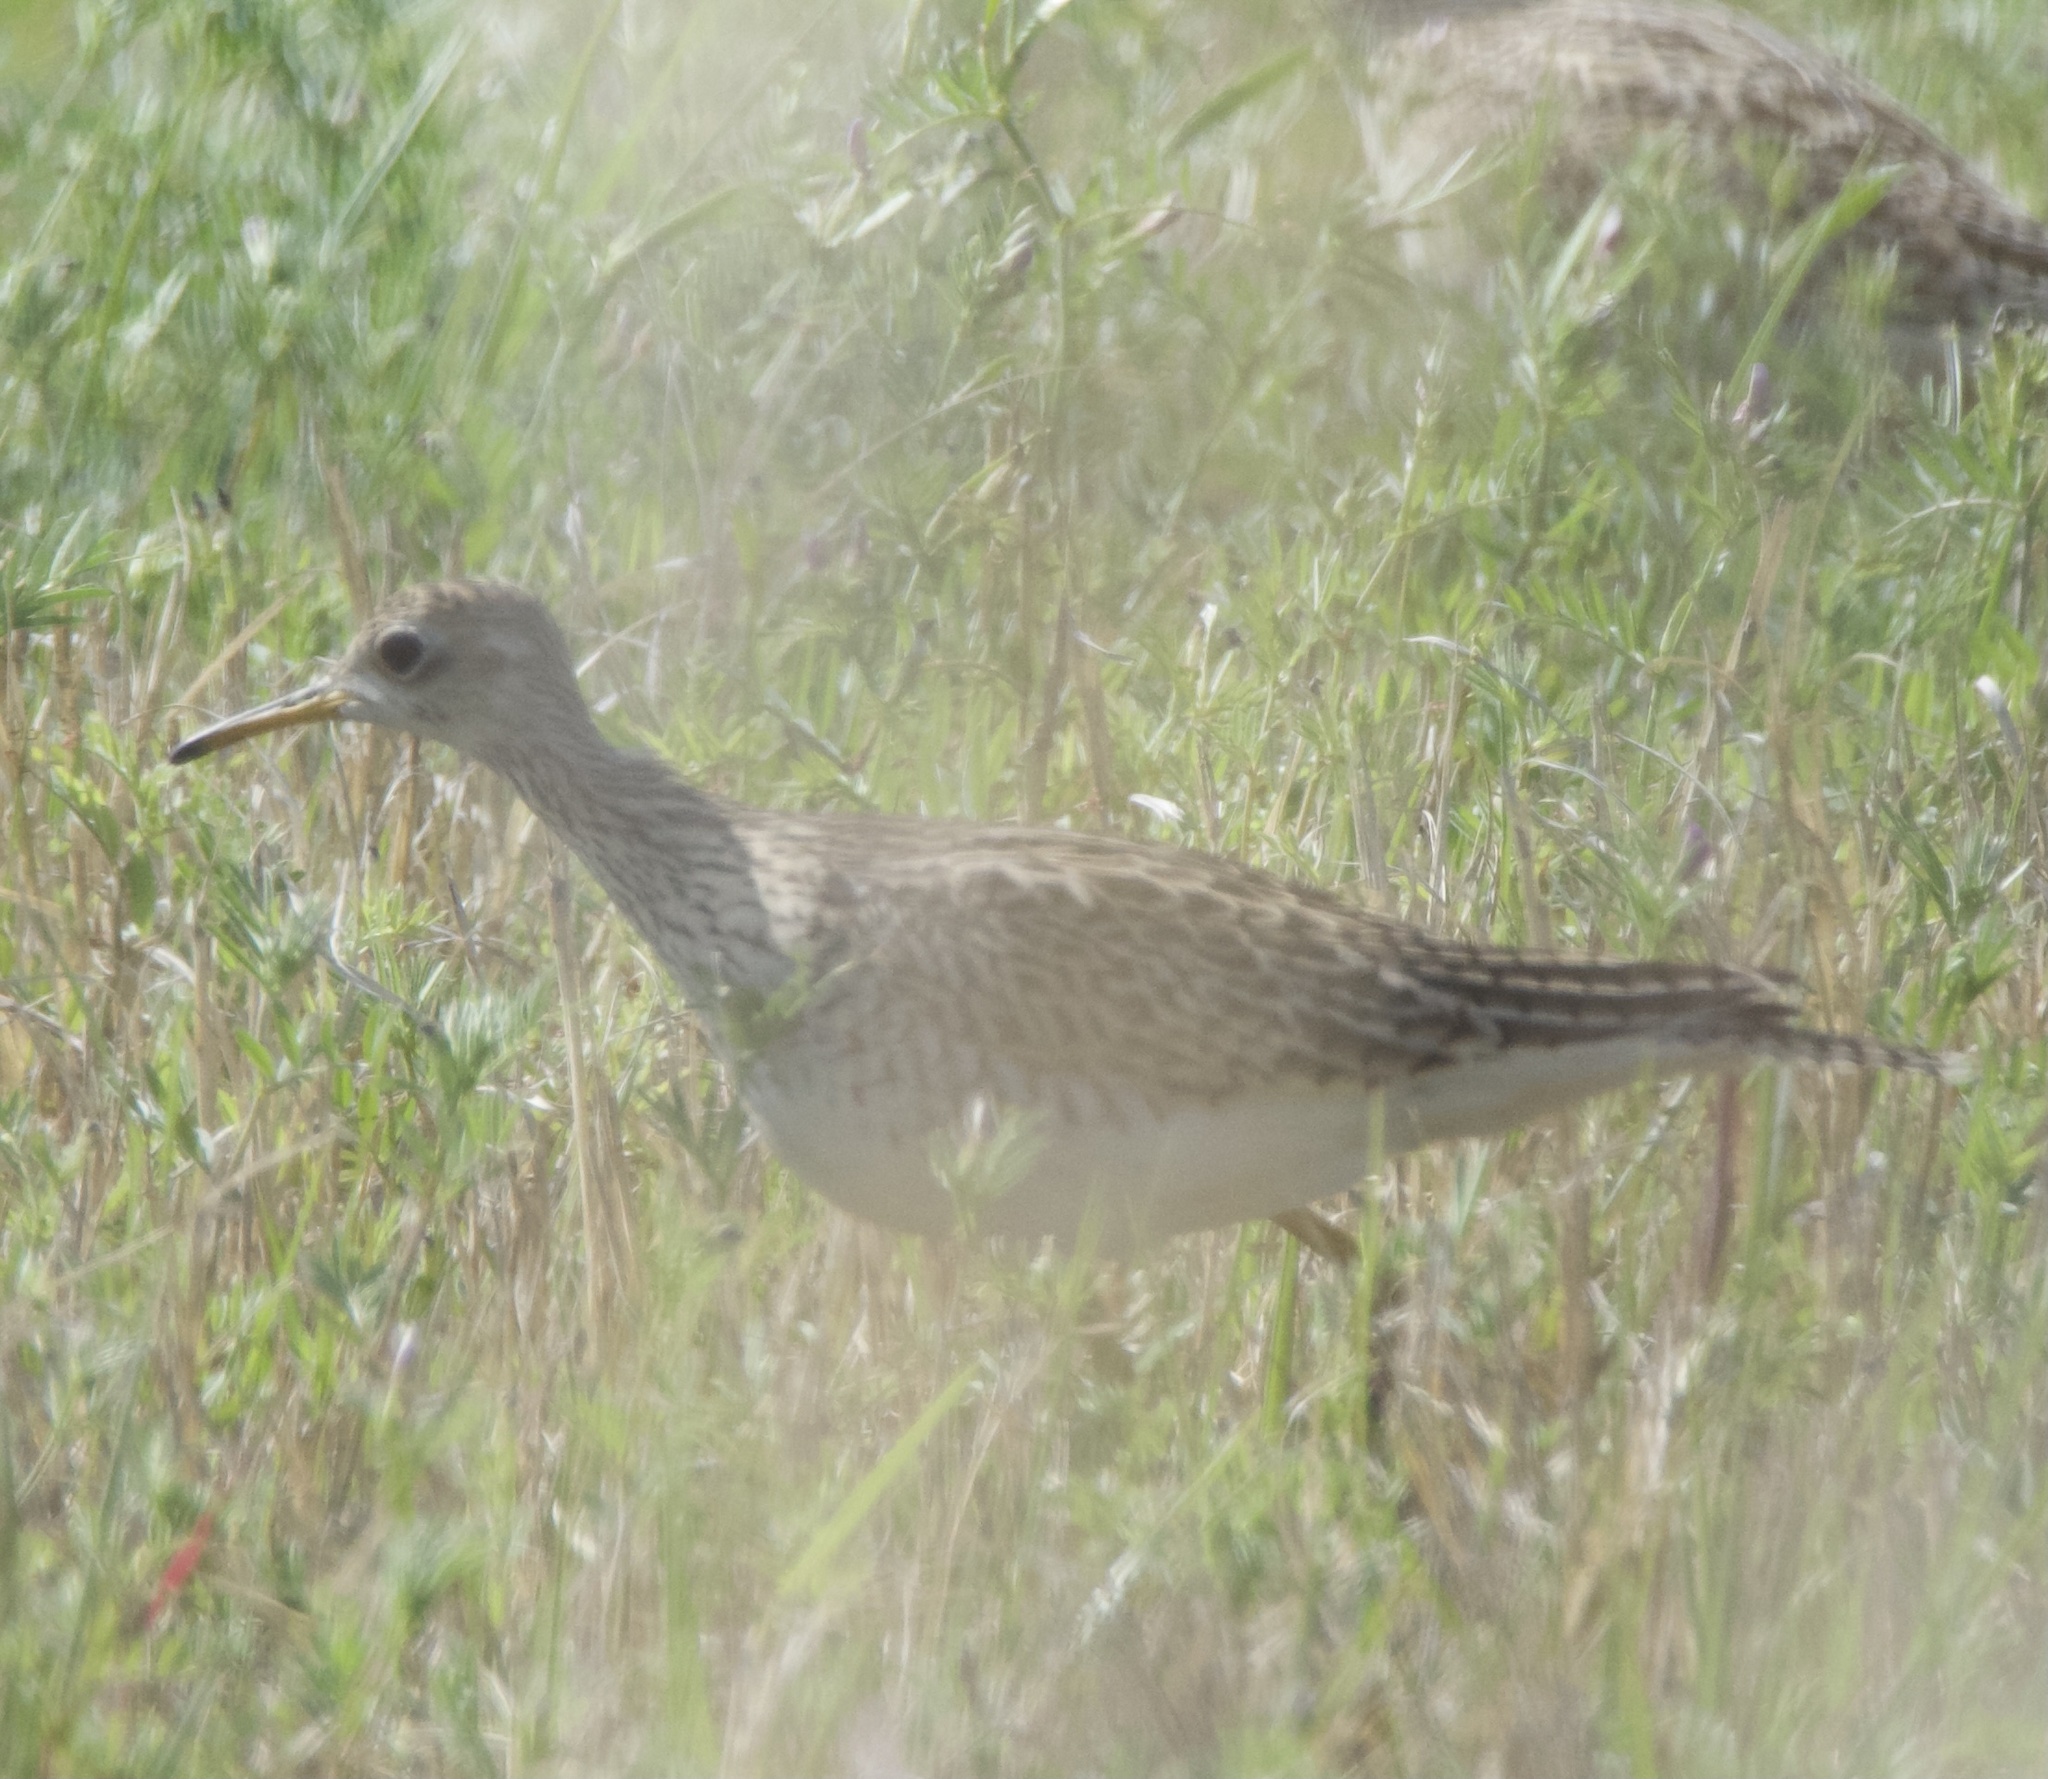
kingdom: Animalia
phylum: Chordata
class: Aves
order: Charadriiformes
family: Scolopacidae
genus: Bartramia
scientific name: Bartramia longicauda
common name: Upland sandpiper
